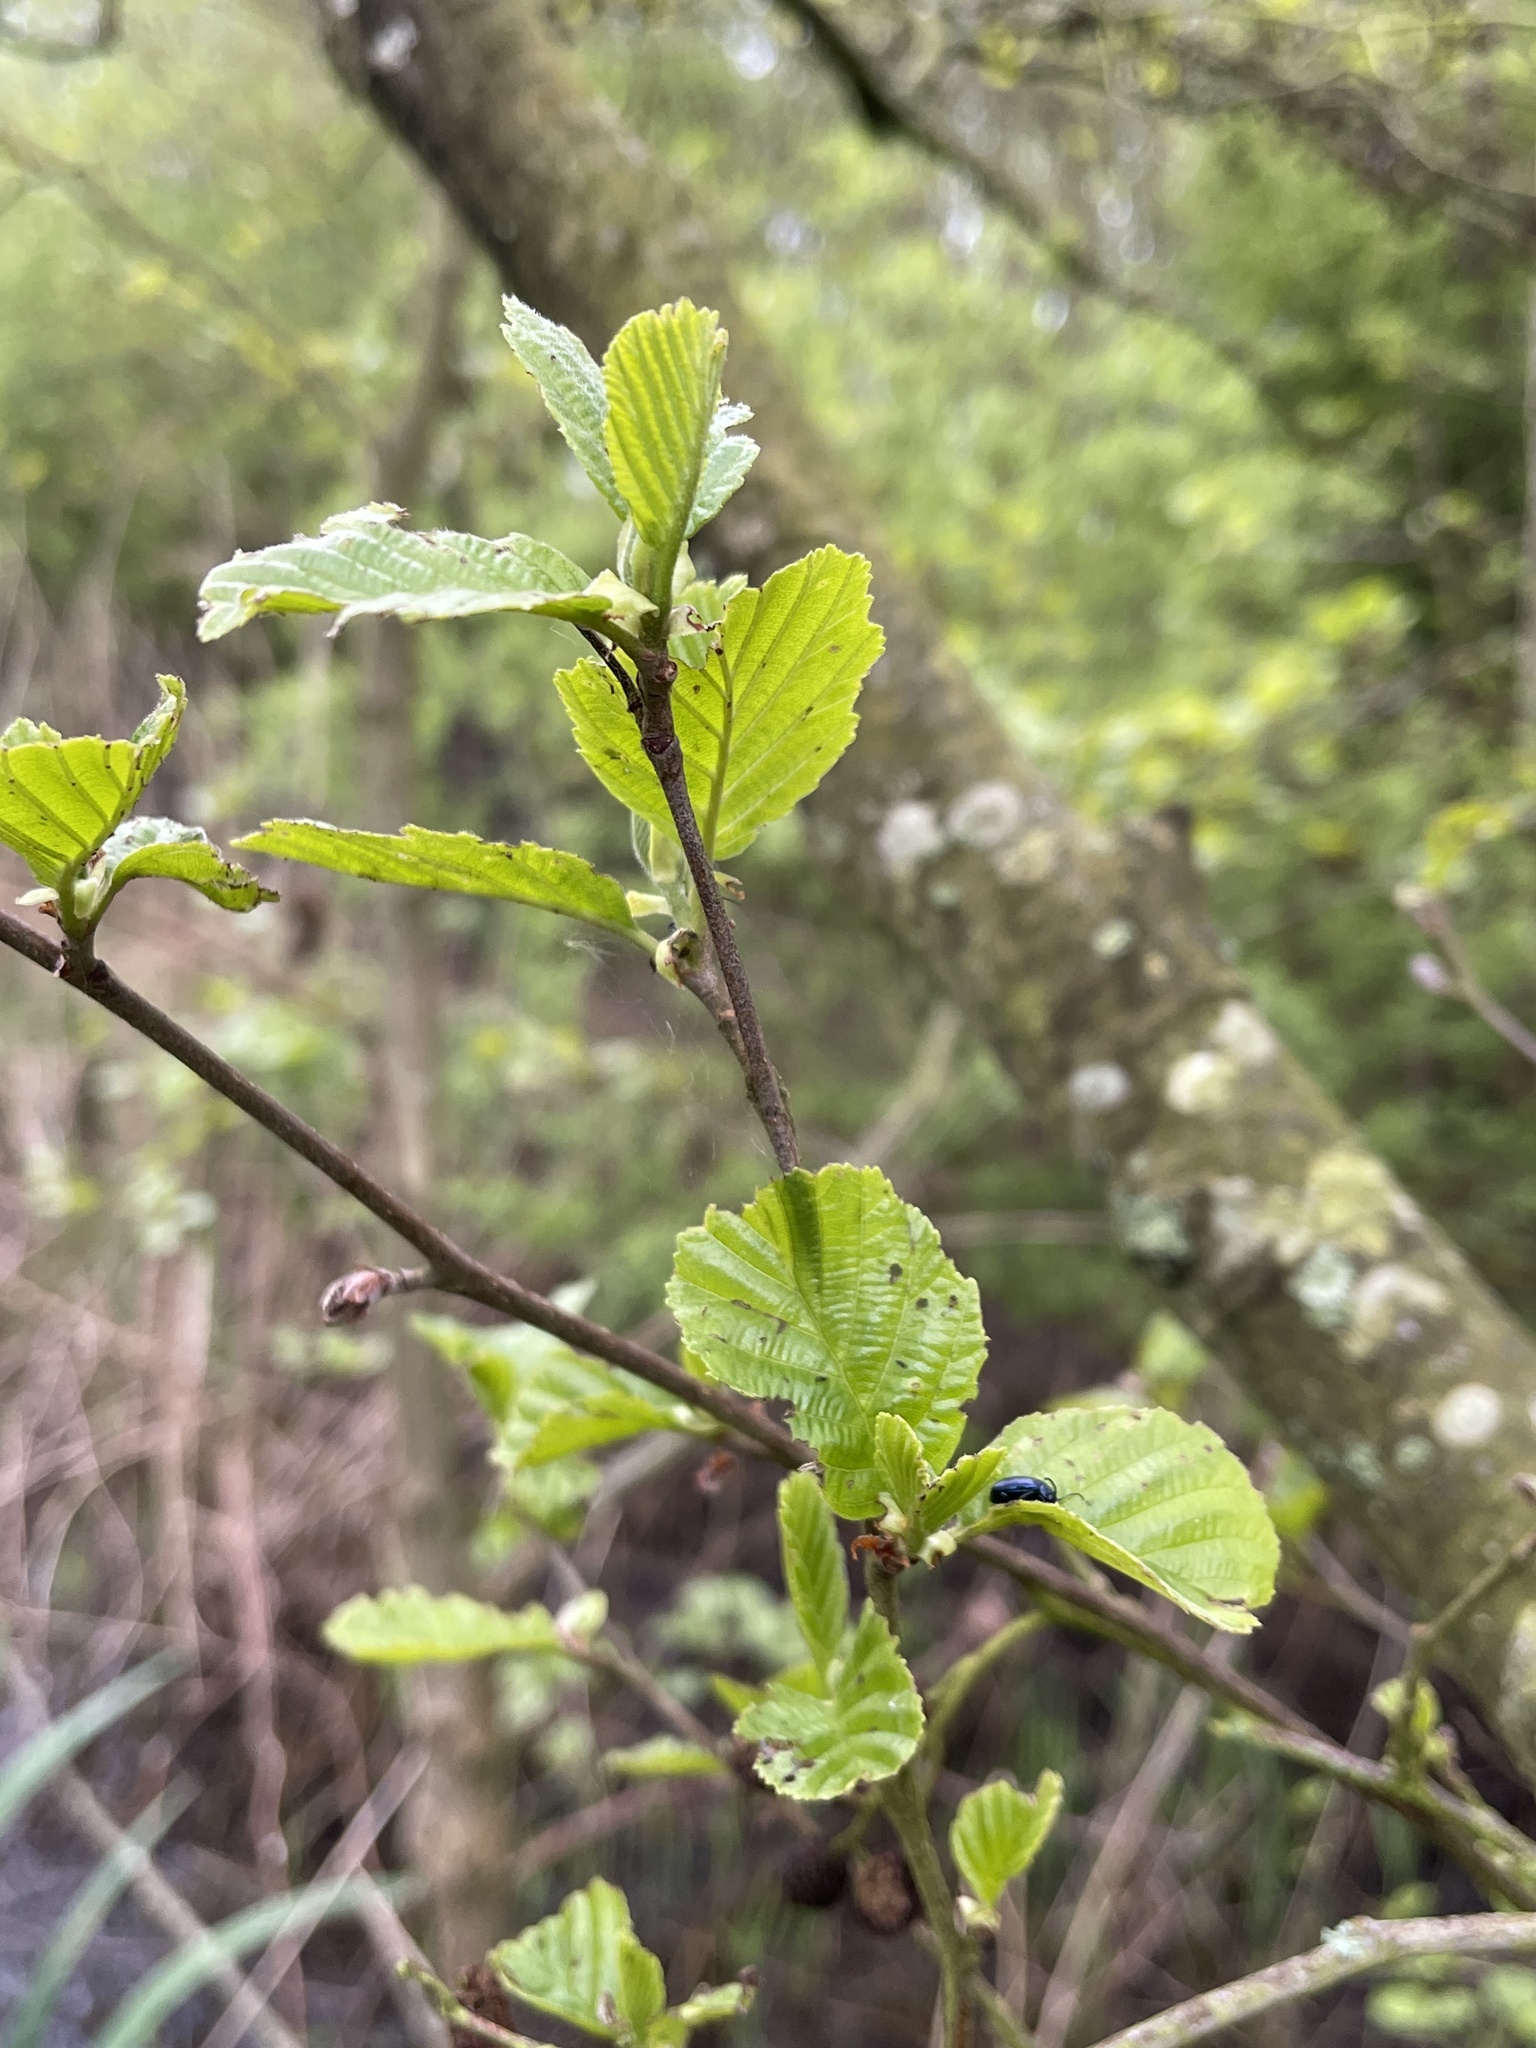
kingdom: Plantae
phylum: Tracheophyta
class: Magnoliopsida
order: Fagales
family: Betulaceae
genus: Alnus
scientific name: Alnus glutinosa
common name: Black alder
